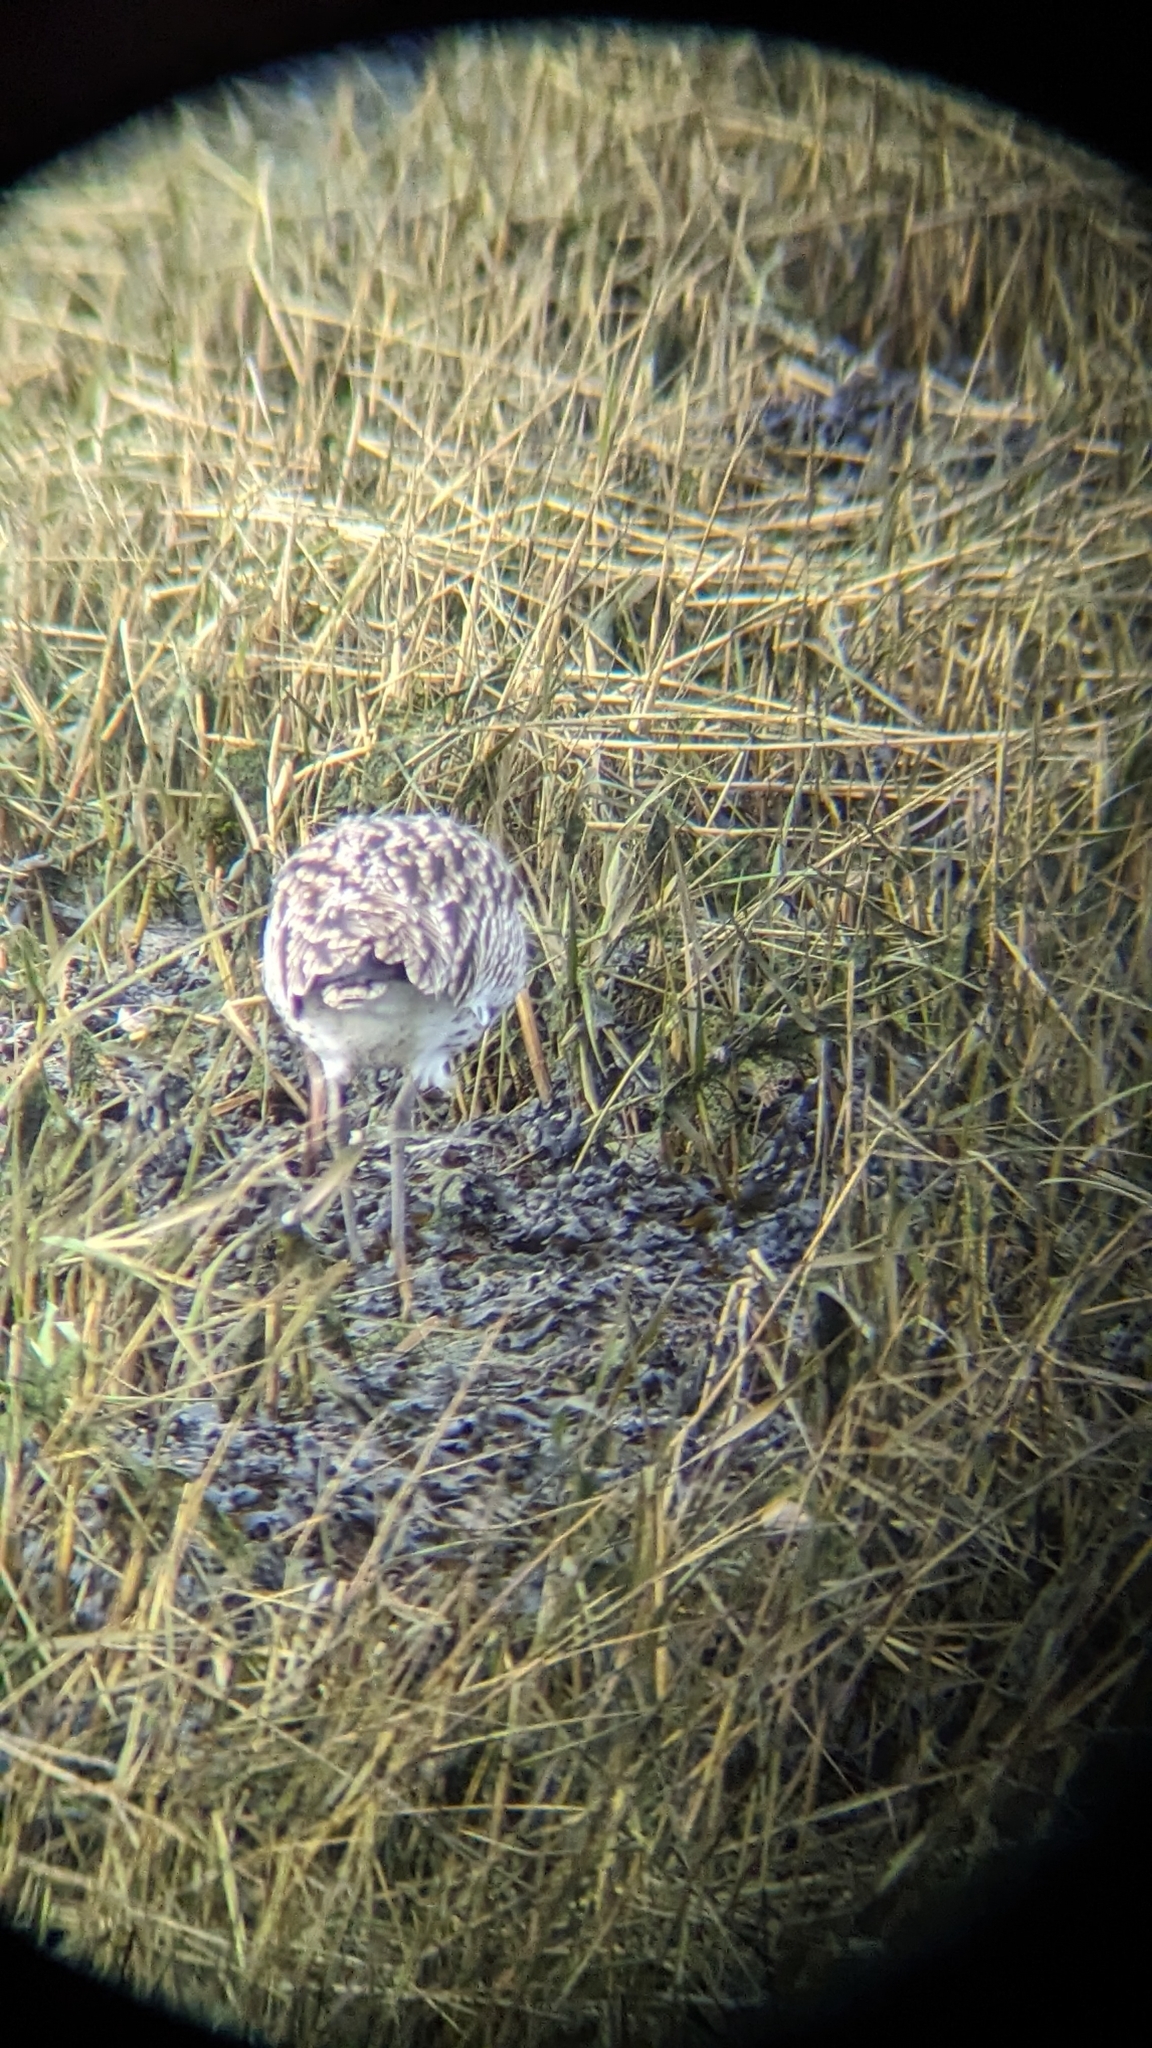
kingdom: Animalia
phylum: Chordata
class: Aves
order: Charadriiformes
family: Scolopacidae
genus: Numenius
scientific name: Numenius arquata
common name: Eurasian curlew
